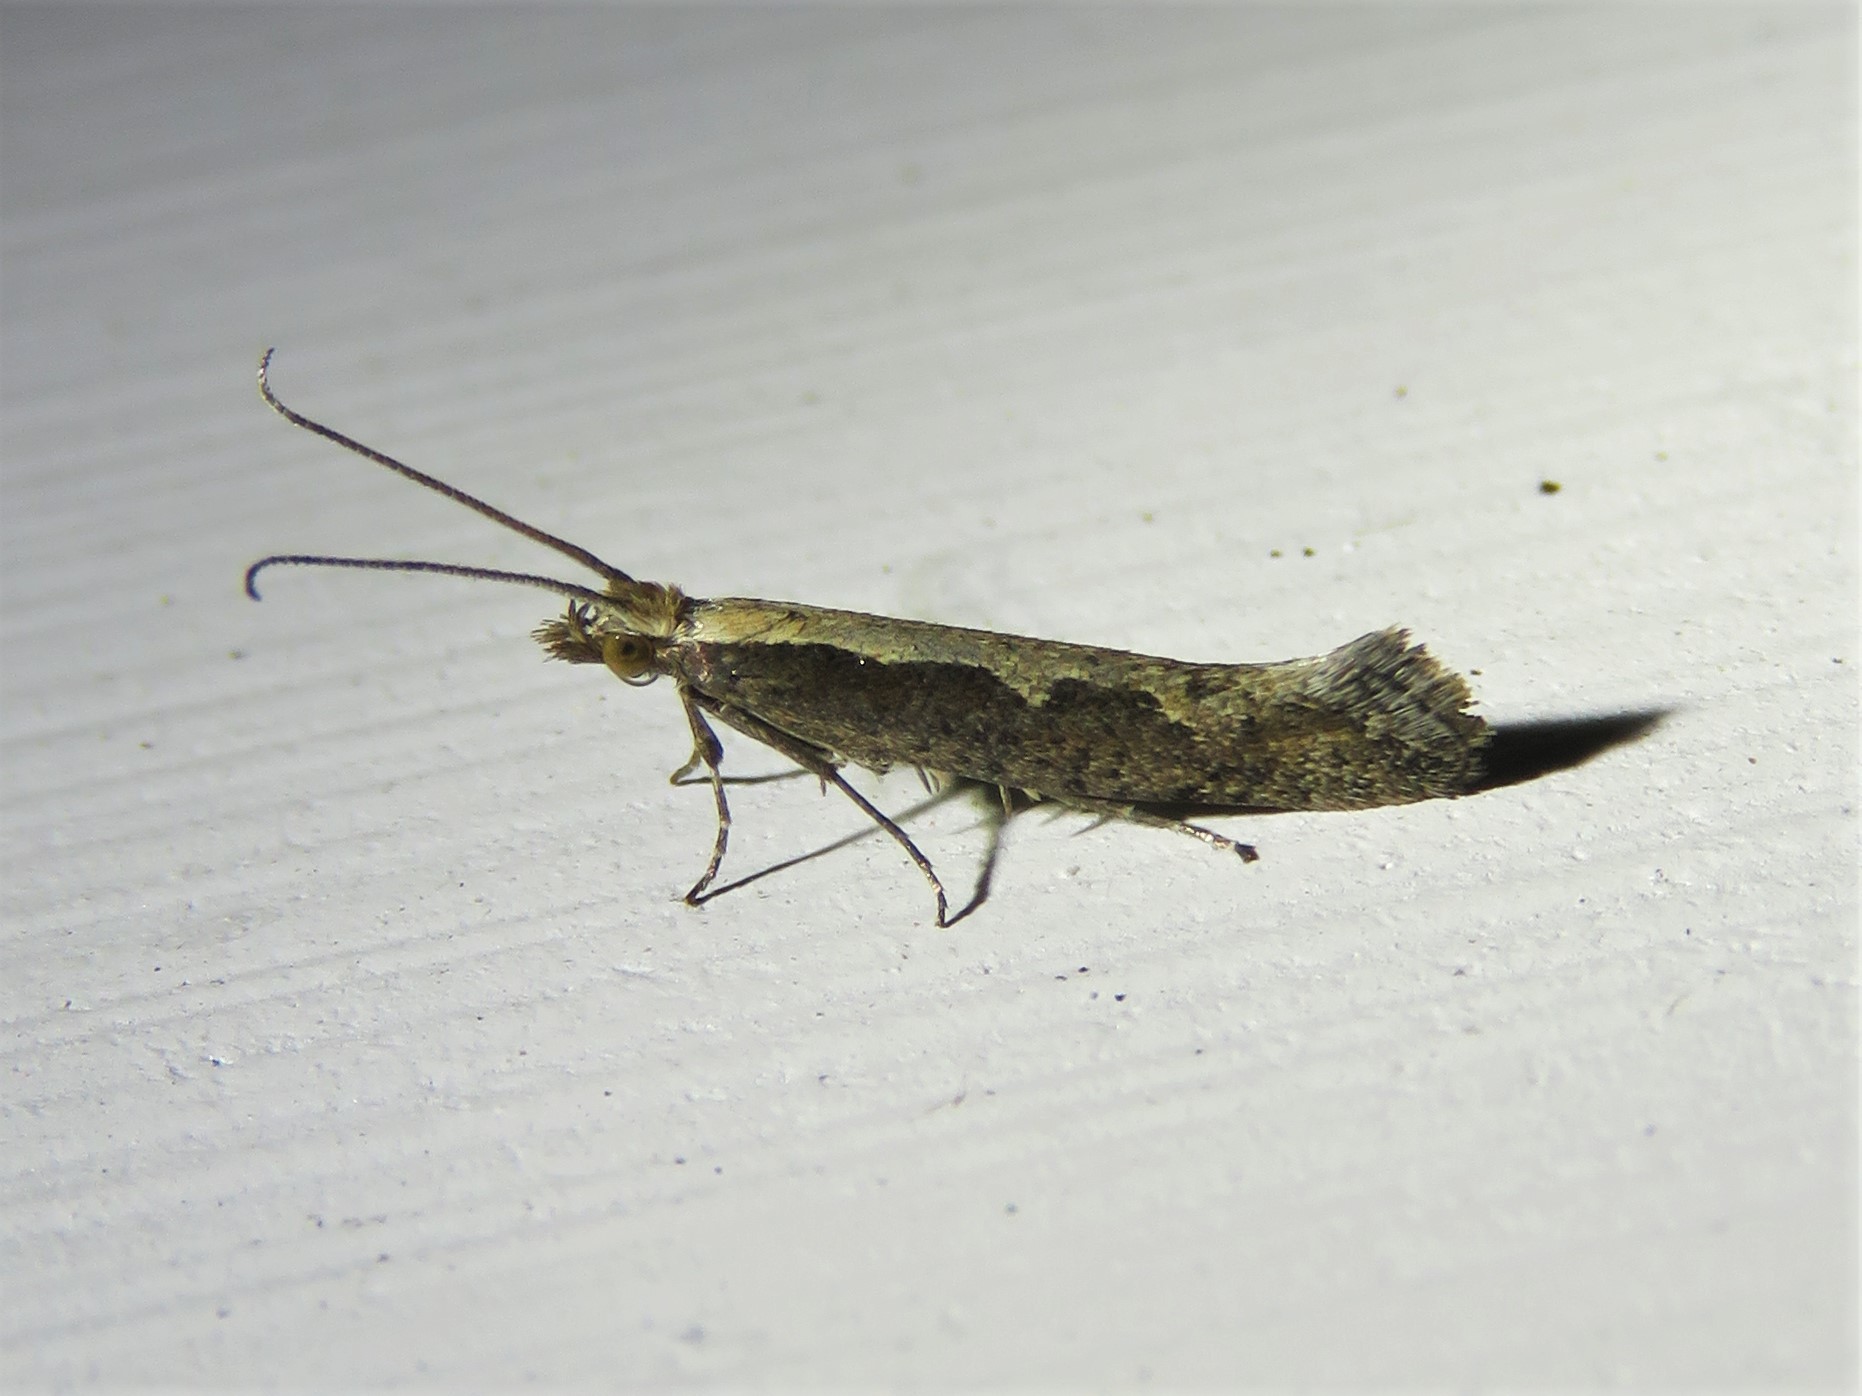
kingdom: Animalia
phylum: Arthropoda
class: Insecta
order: Lepidoptera
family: Plutellidae
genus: Plutella
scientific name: Plutella xylostella
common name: Diamond-back moth
